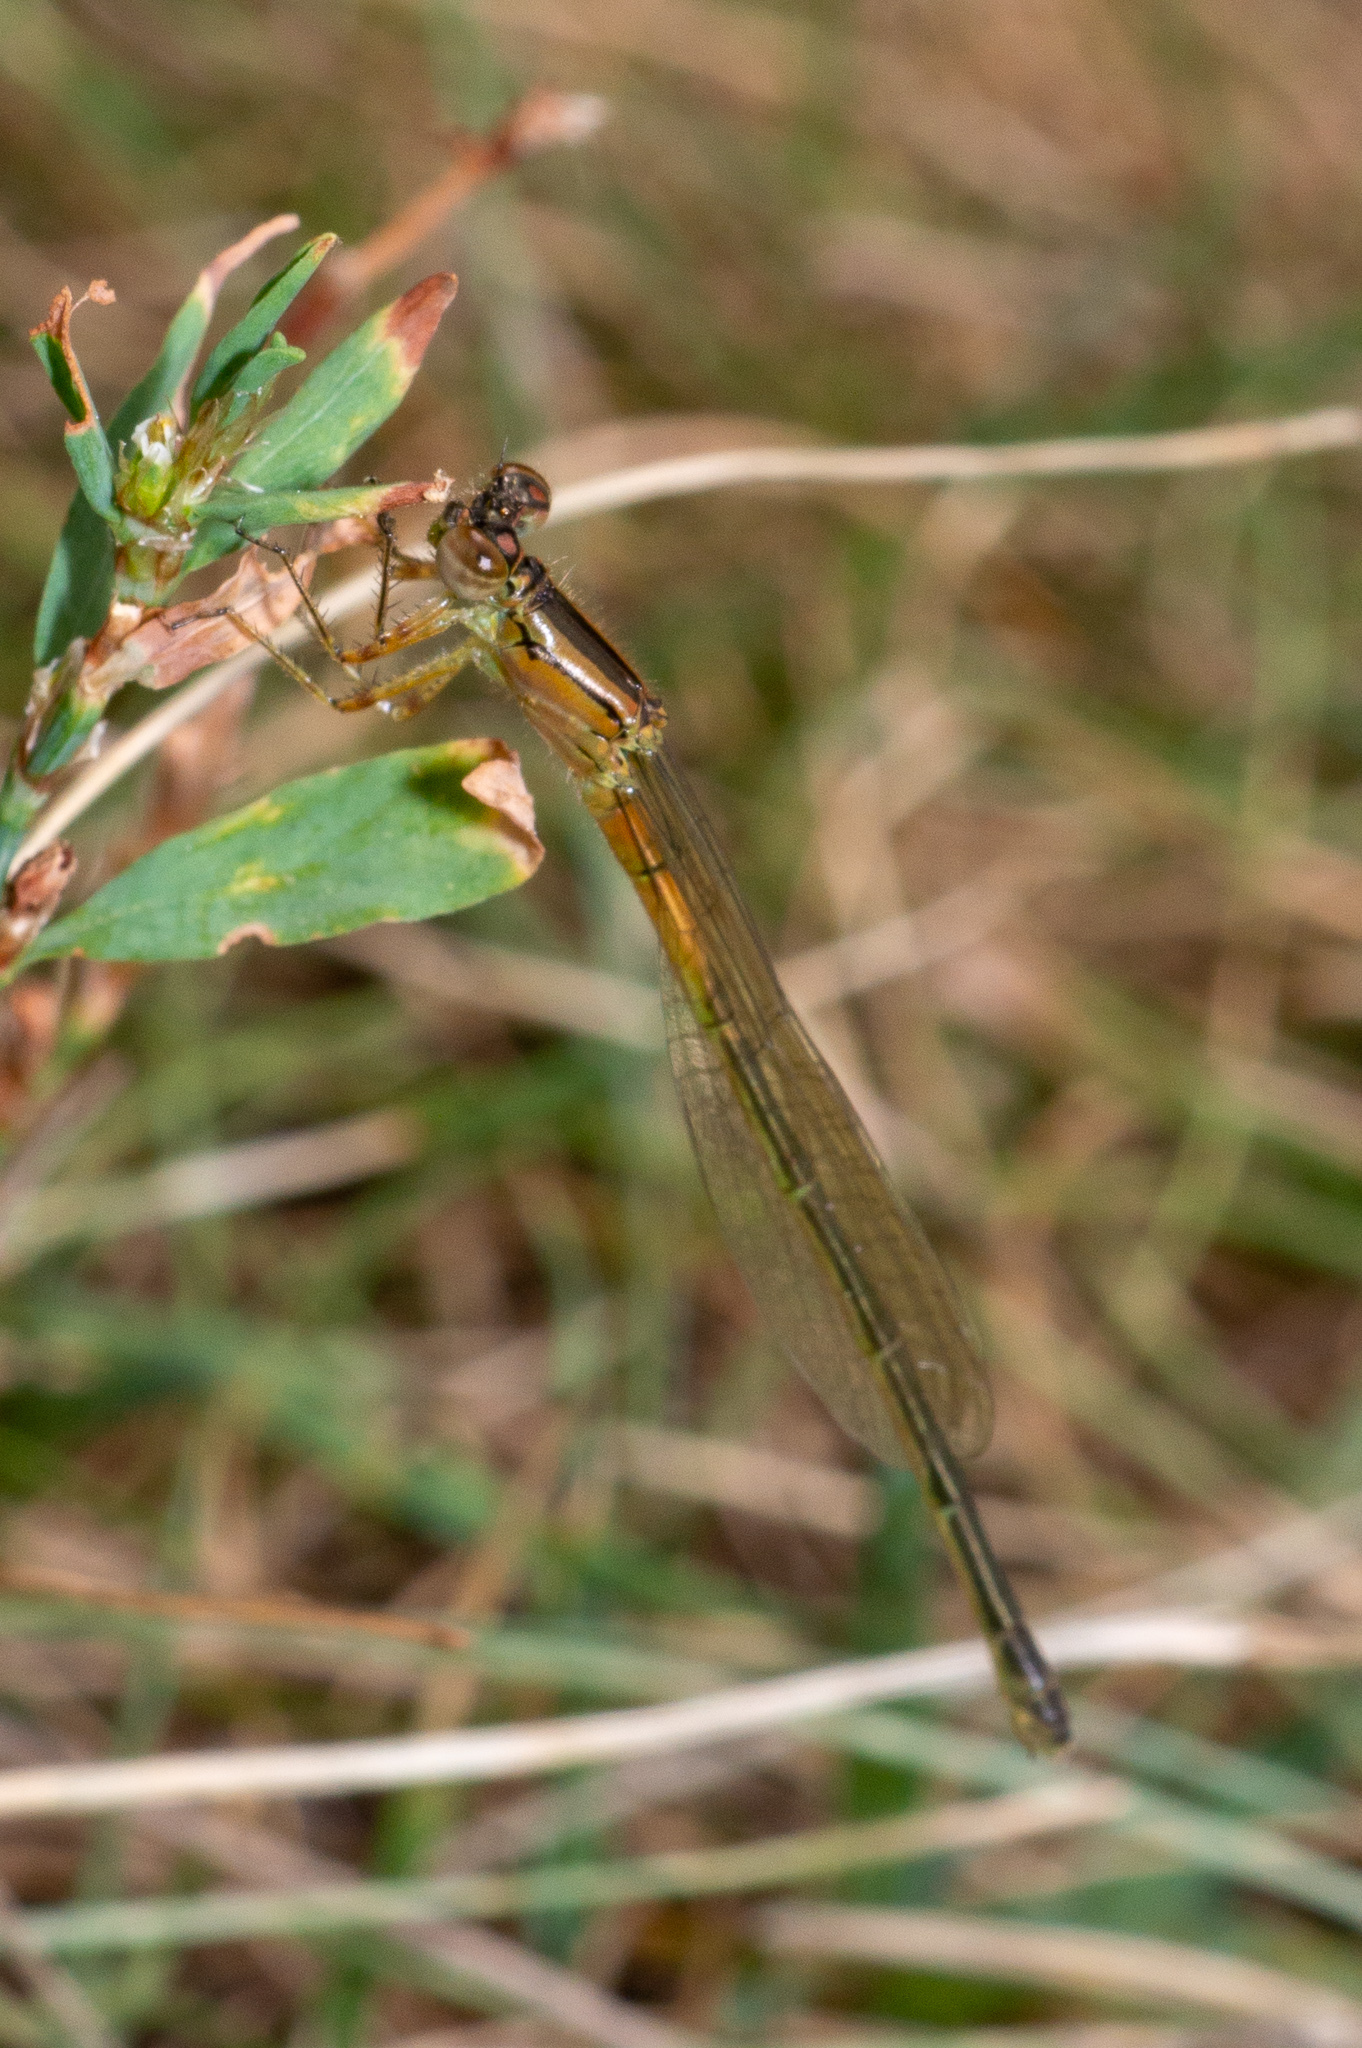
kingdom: Animalia
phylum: Arthropoda
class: Insecta
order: Odonata
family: Coenagrionidae
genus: Ischnura
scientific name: Ischnura verticalis
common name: Eastern forktail
